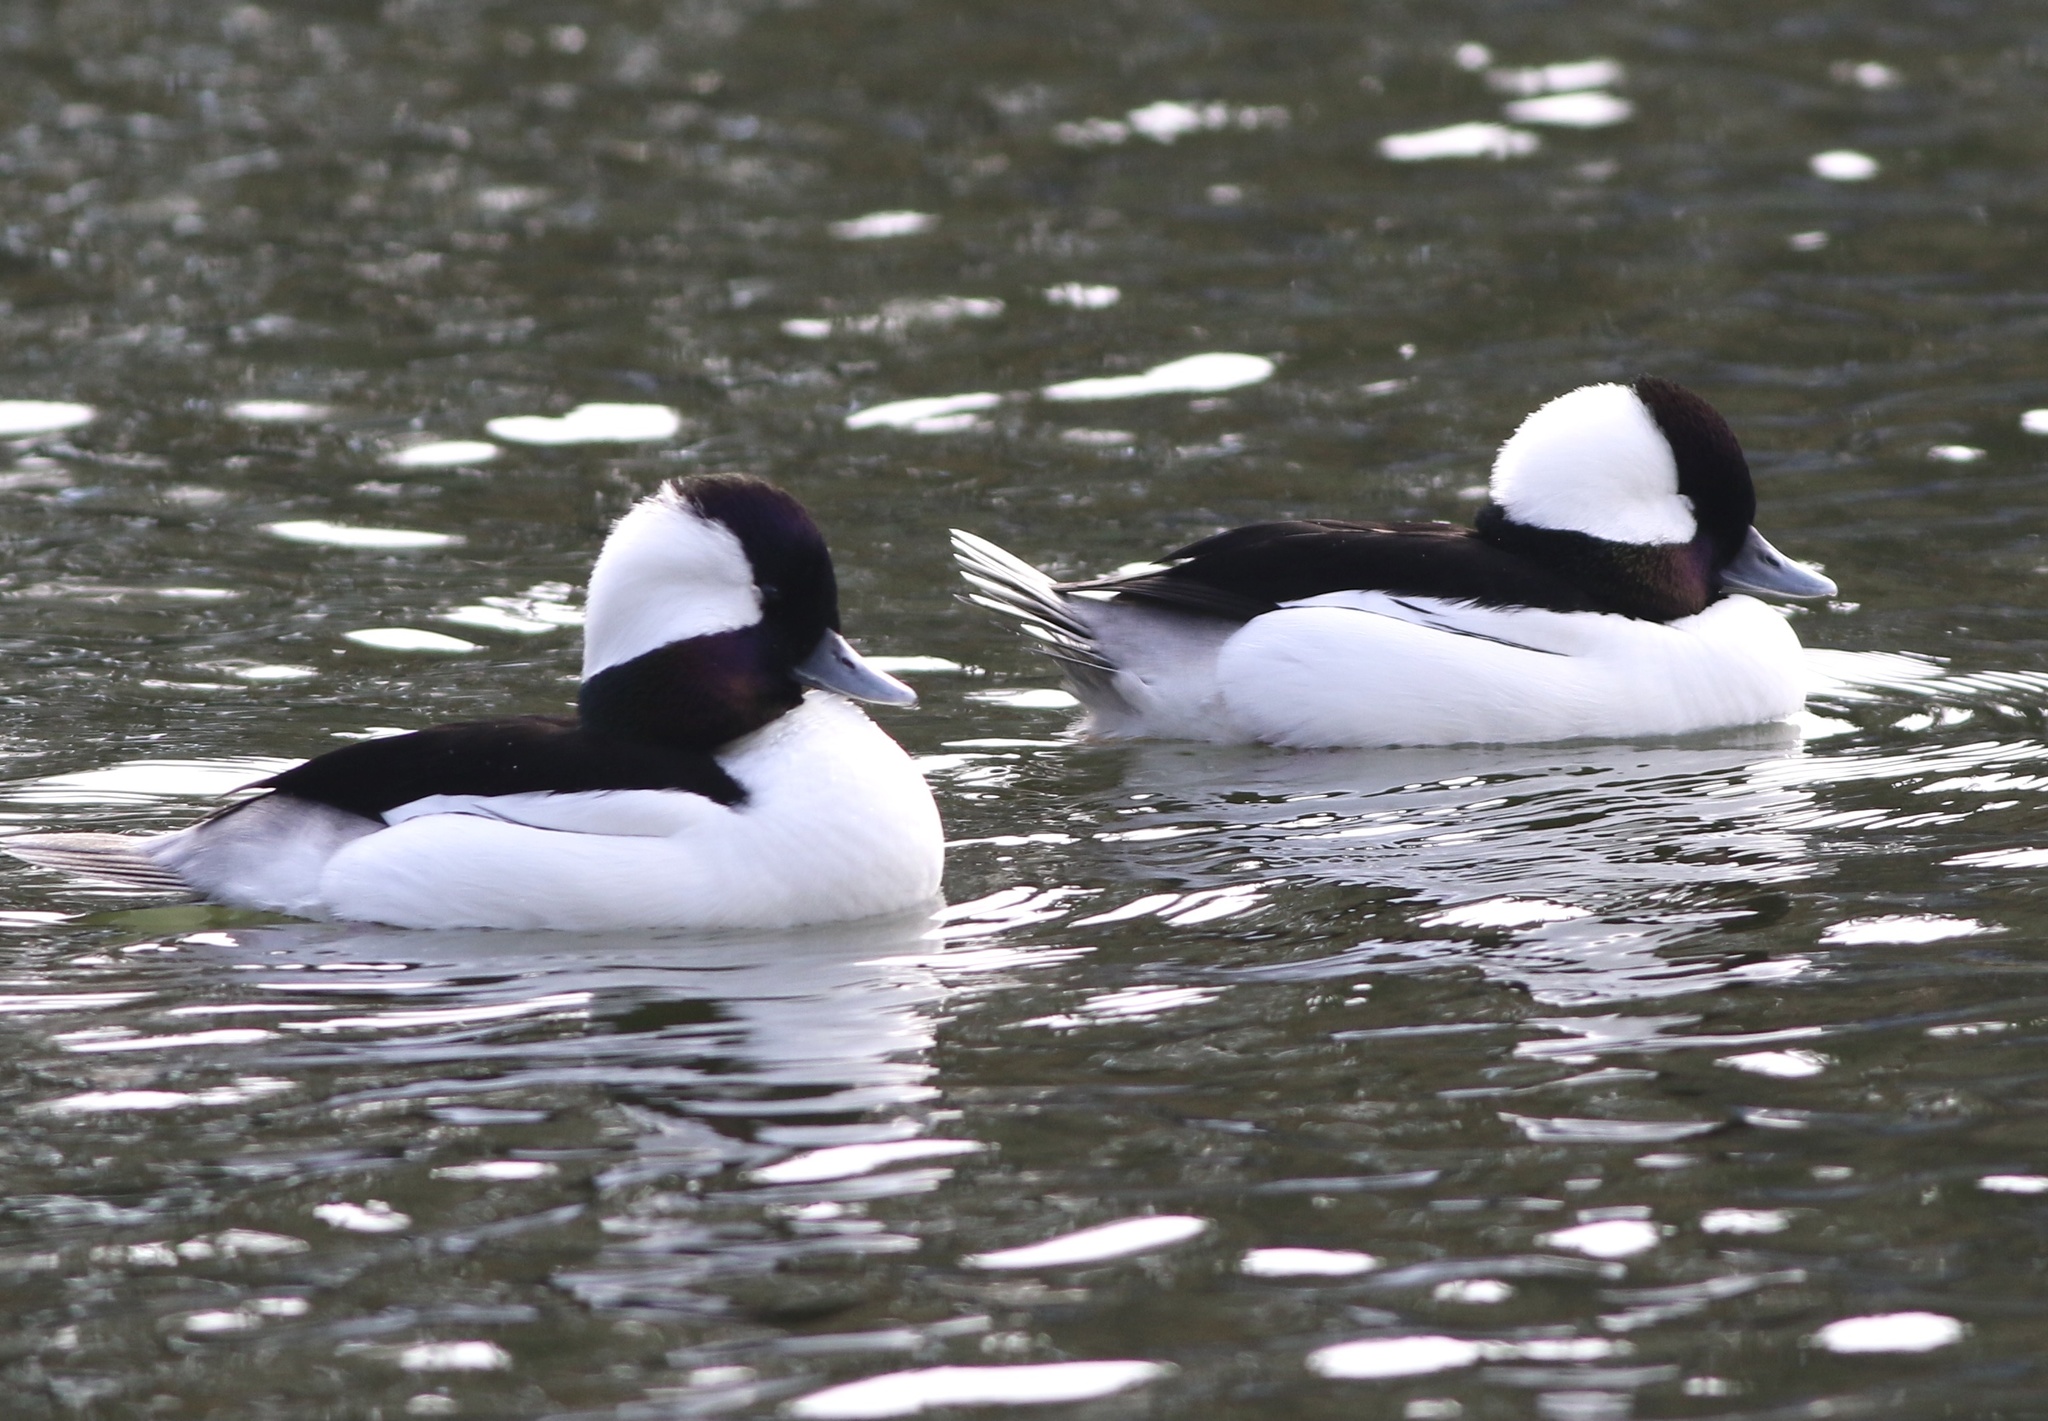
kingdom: Animalia
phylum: Chordata
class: Aves
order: Anseriformes
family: Anatidae
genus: Bucephala
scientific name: Bucephala albeola
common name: Bufflehead
